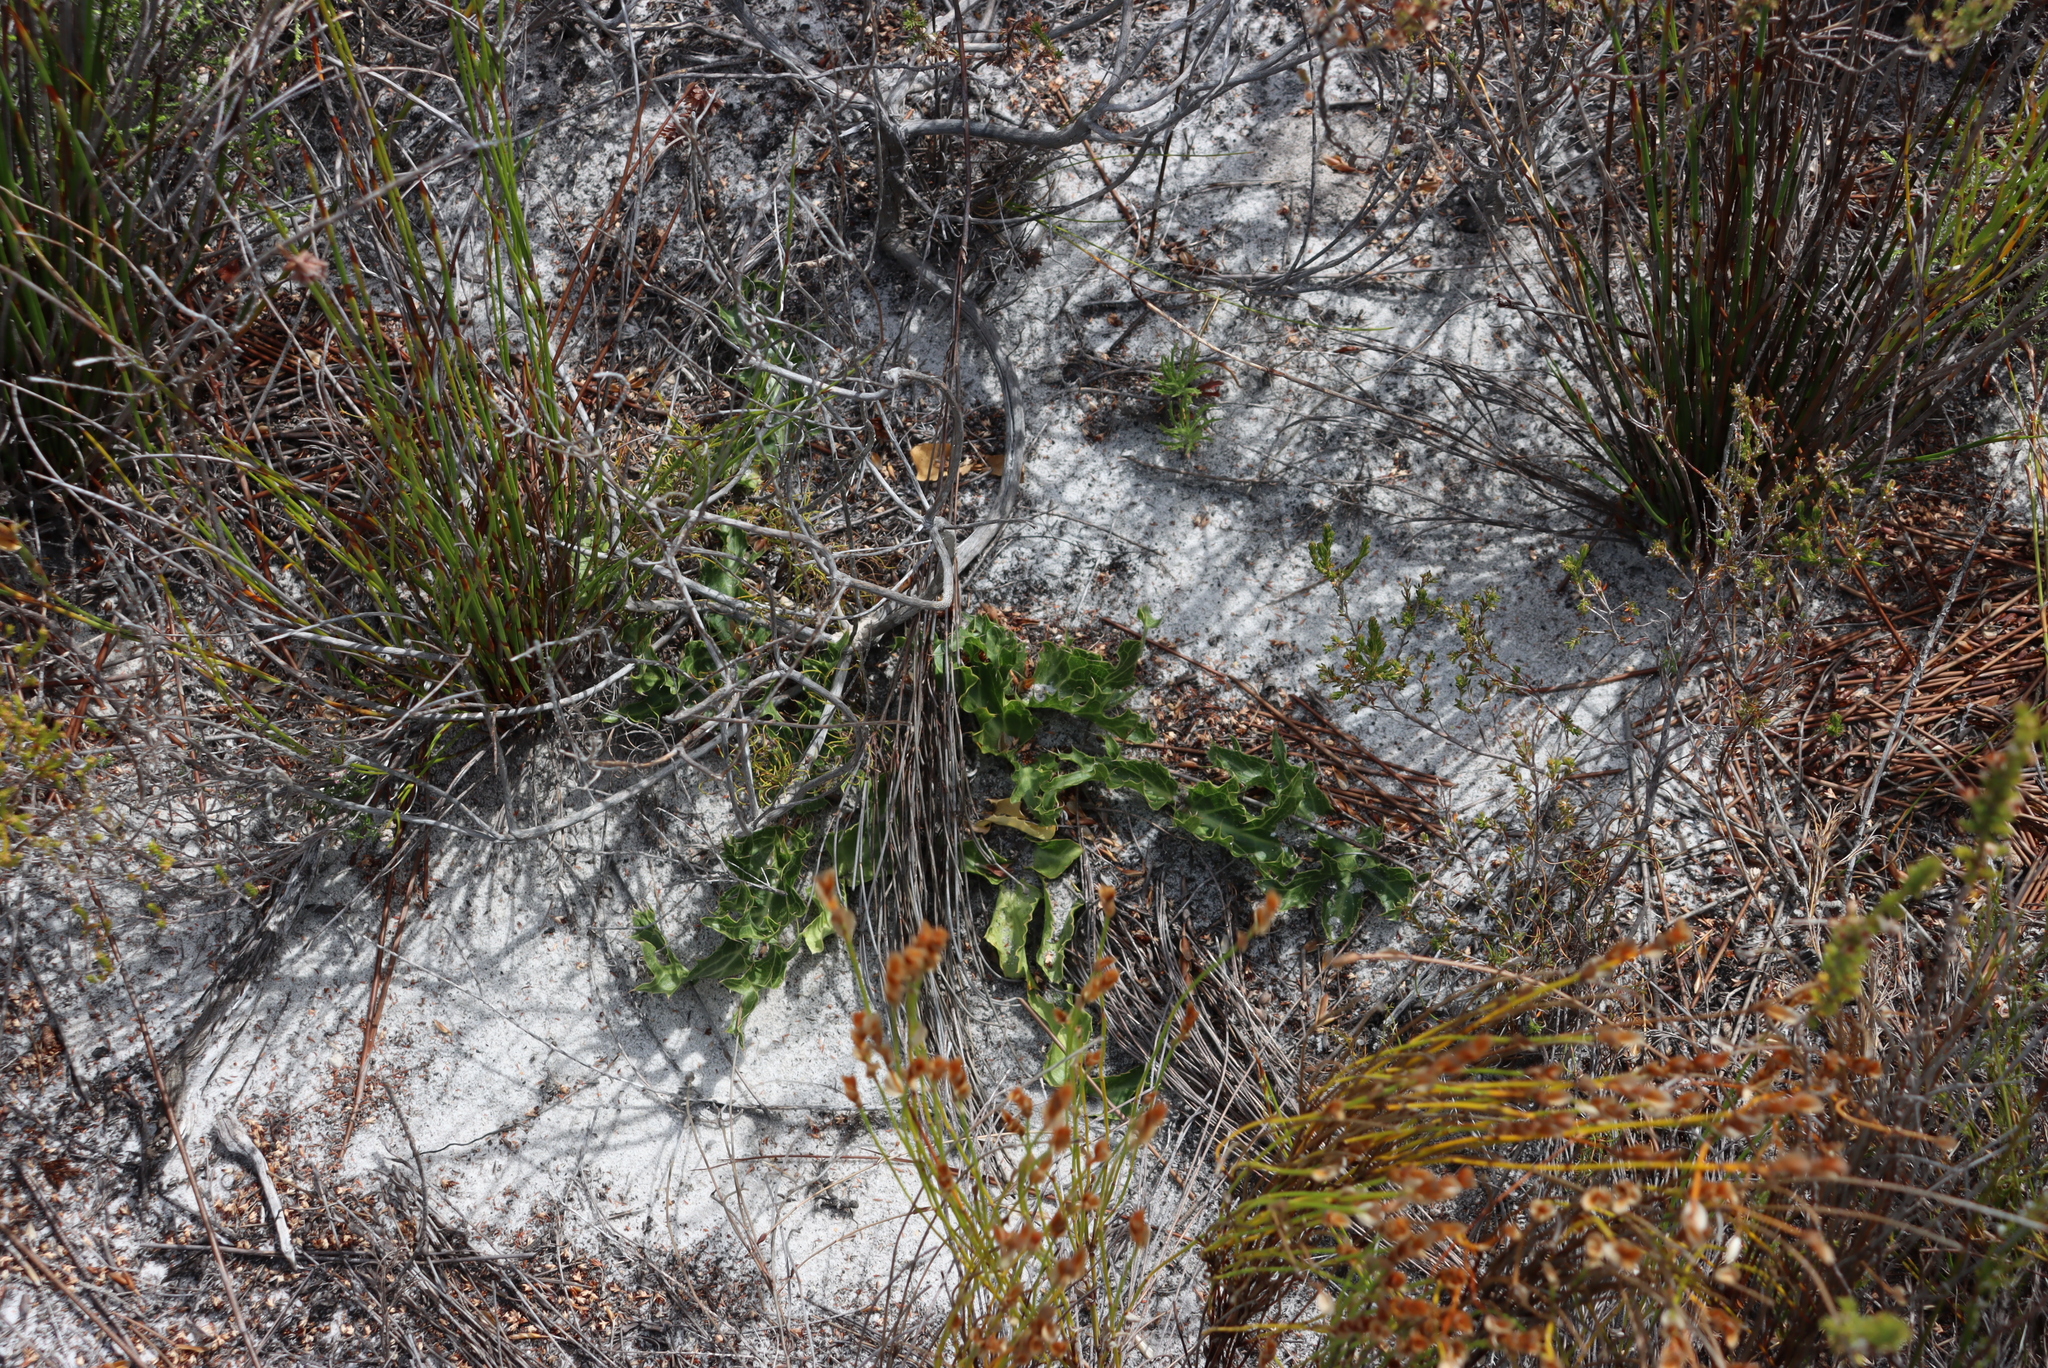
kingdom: Plantae
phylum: Tracheophyta
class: Magnoliopsida
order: Apiales
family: Apiaceae
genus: Lichtensteinia
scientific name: Lichtensteinia lacera
